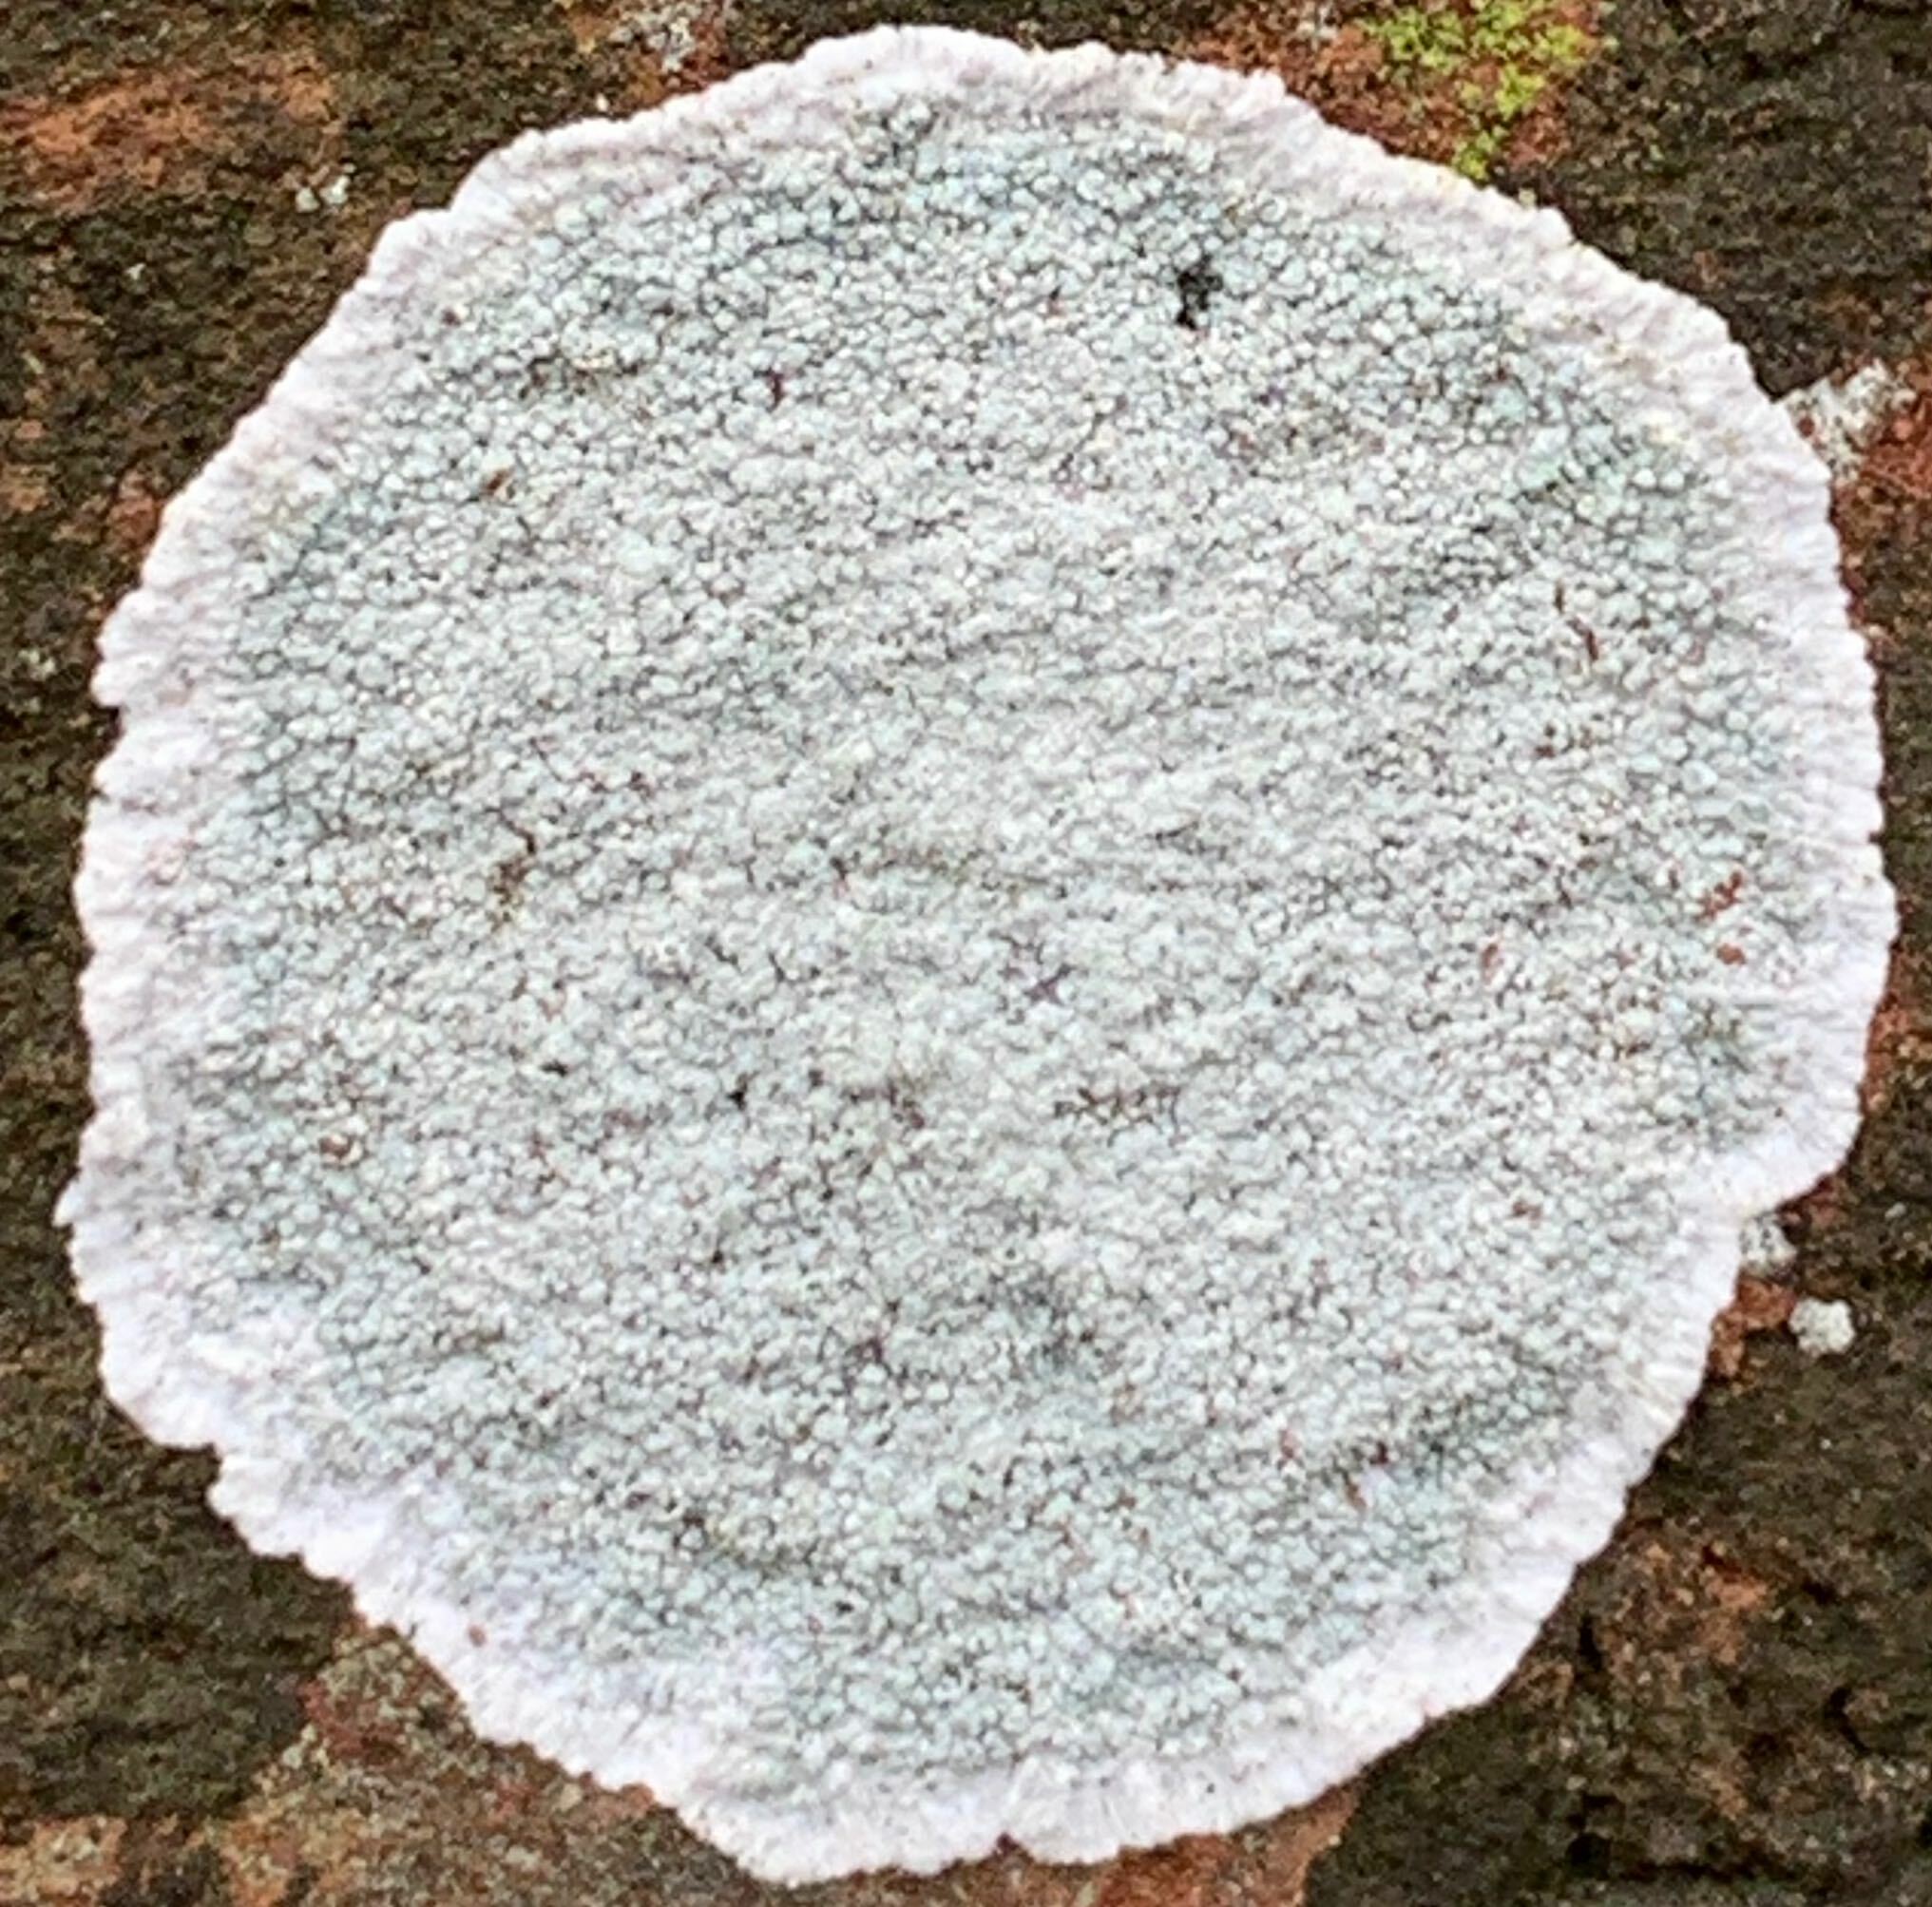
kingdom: Fungi
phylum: Ascomycota
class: Lecanoromycetes
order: Lecanorales
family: Haematommataceae
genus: Haematomma
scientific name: Haematomma ochroleucum
